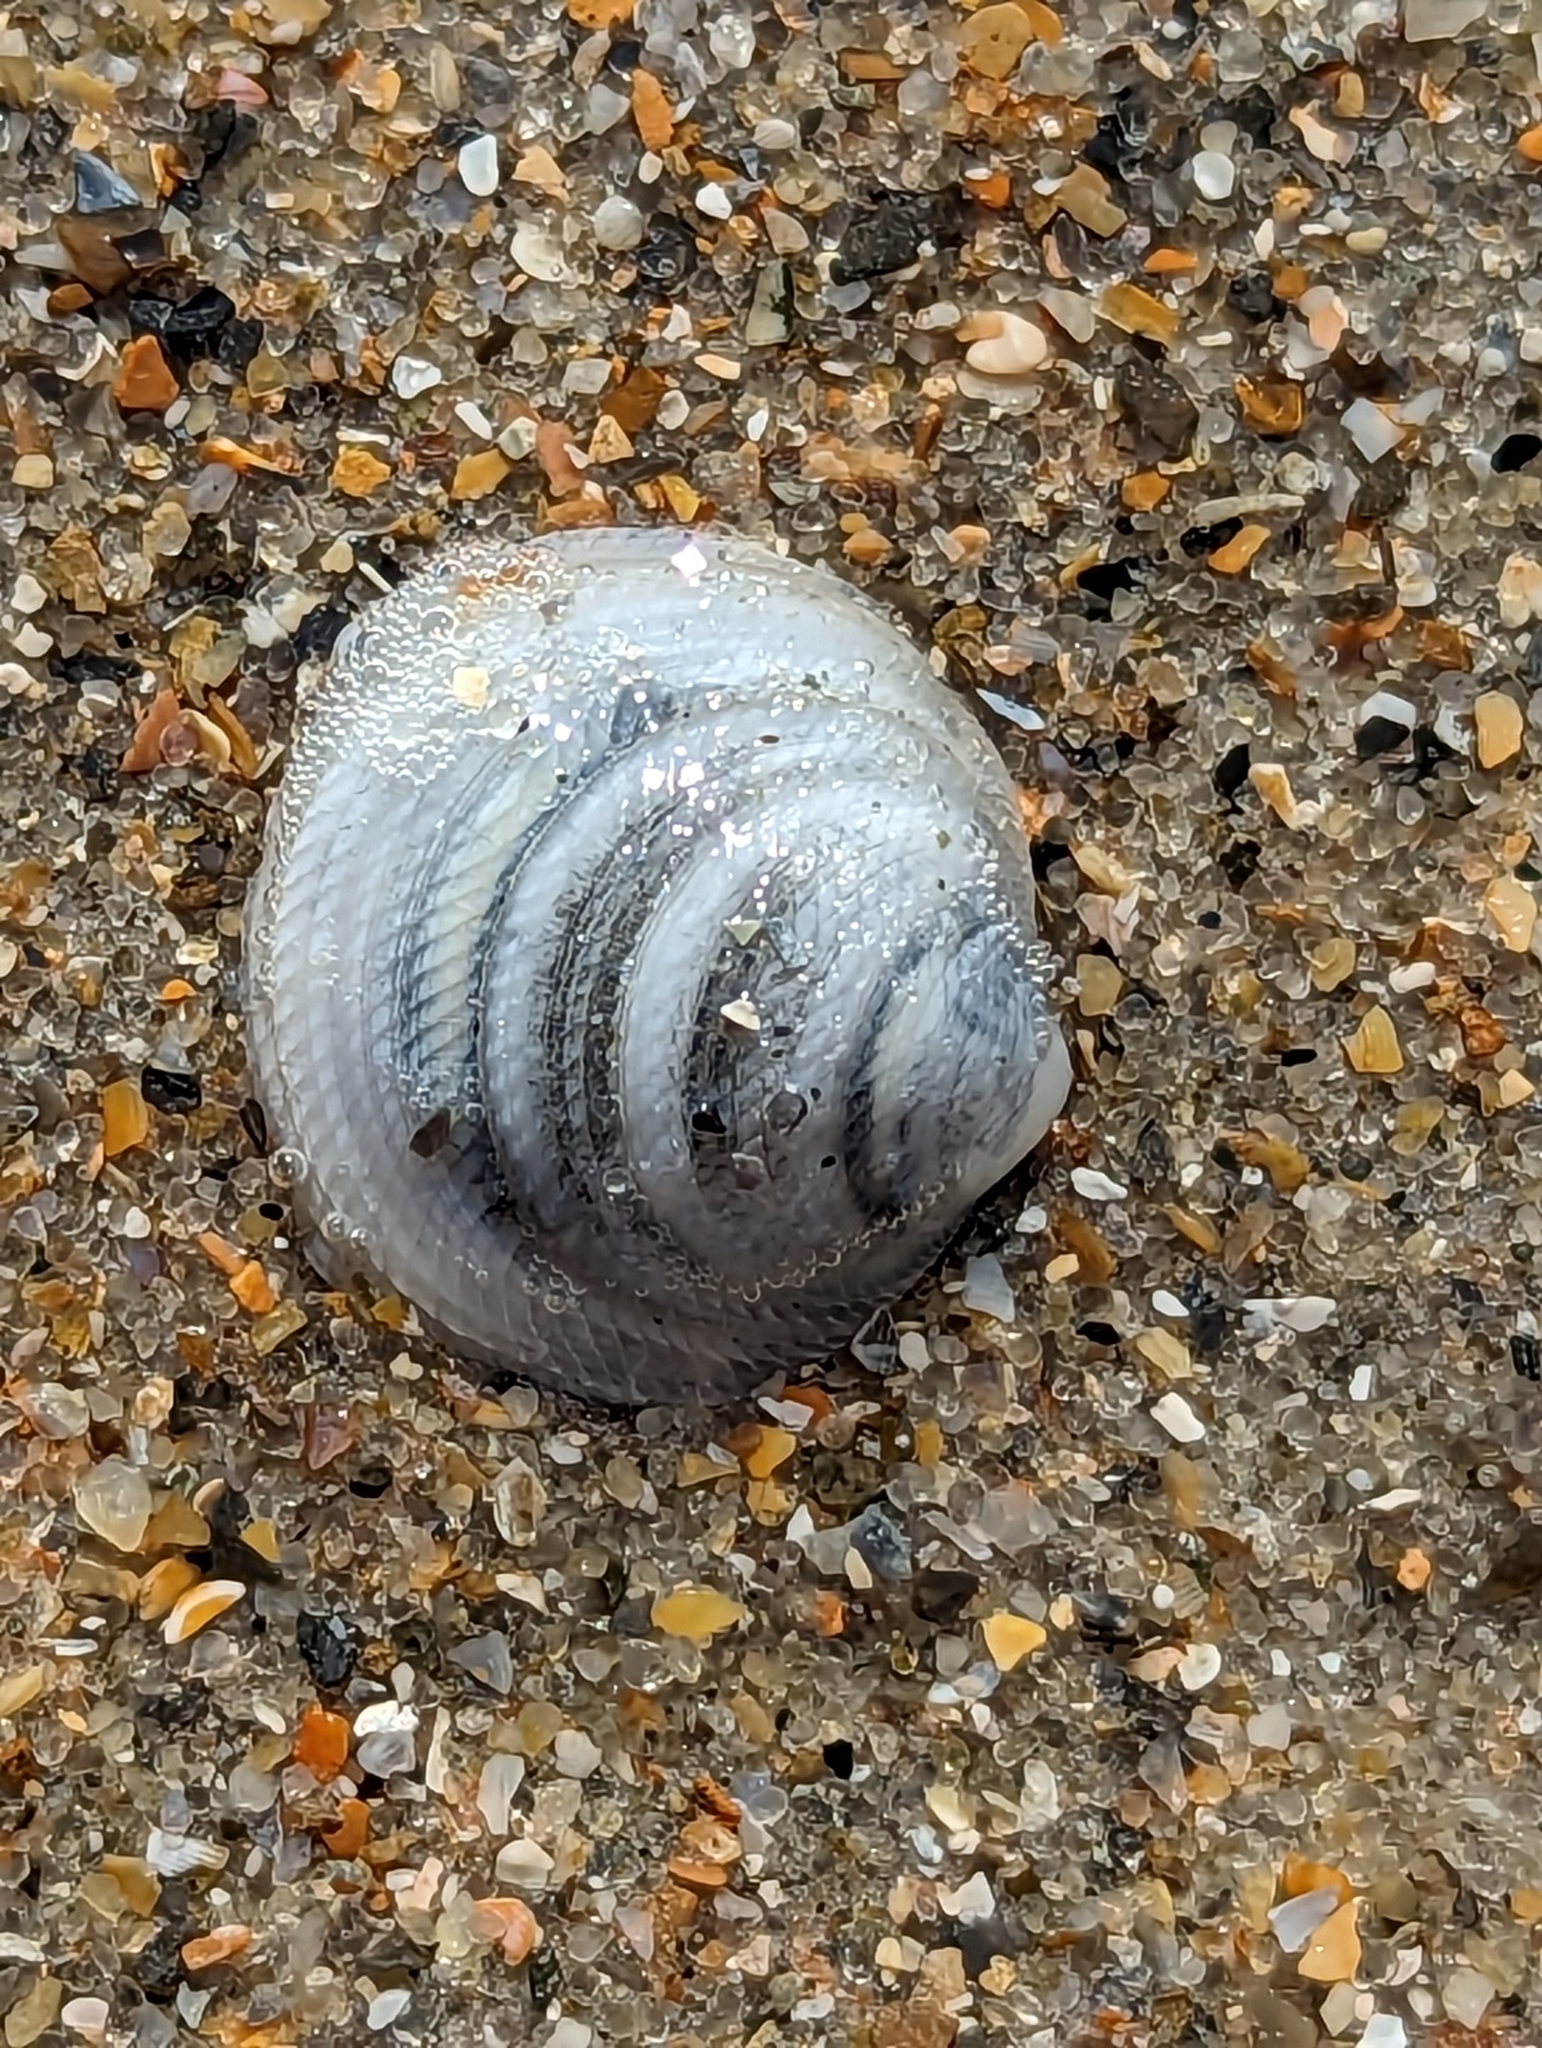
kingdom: Animalia
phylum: Mollusca
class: Bivalvia
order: Lucinida
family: Lucinidae
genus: Divalinga
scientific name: Divalinga quadrisulcata
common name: Cross-hatched lucine
